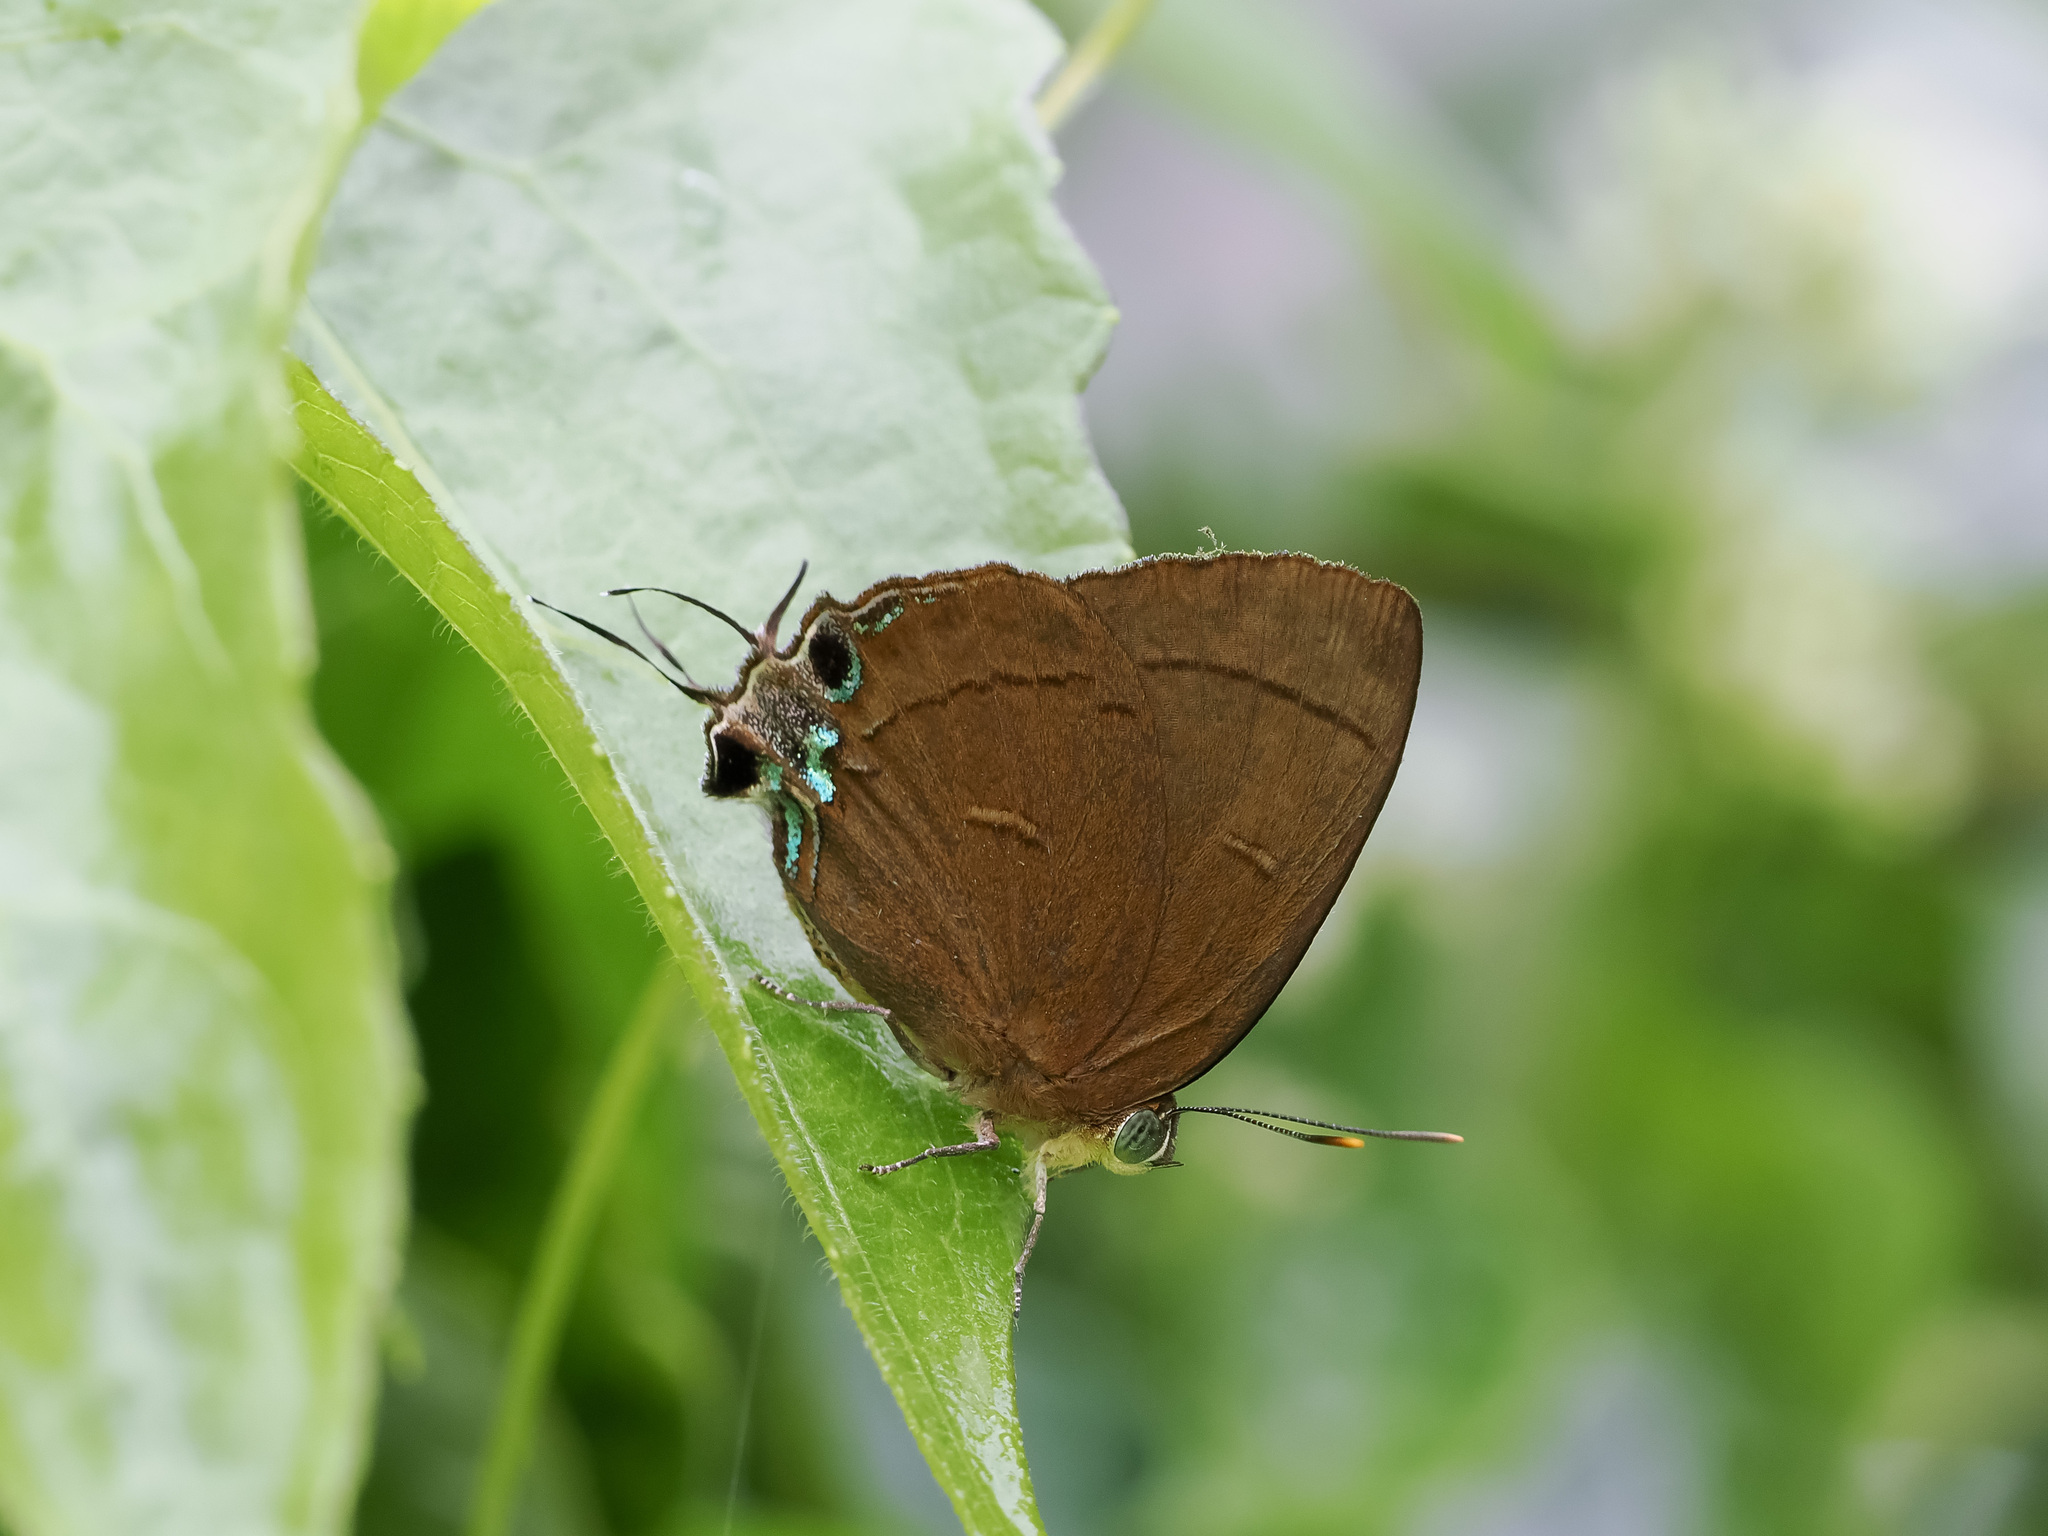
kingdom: Animalia
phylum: Arthropoda
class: Insecta
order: Lepidoptera
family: Lycaenidae
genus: Remelana
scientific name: Remelana jangala
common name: Chocolate royal
